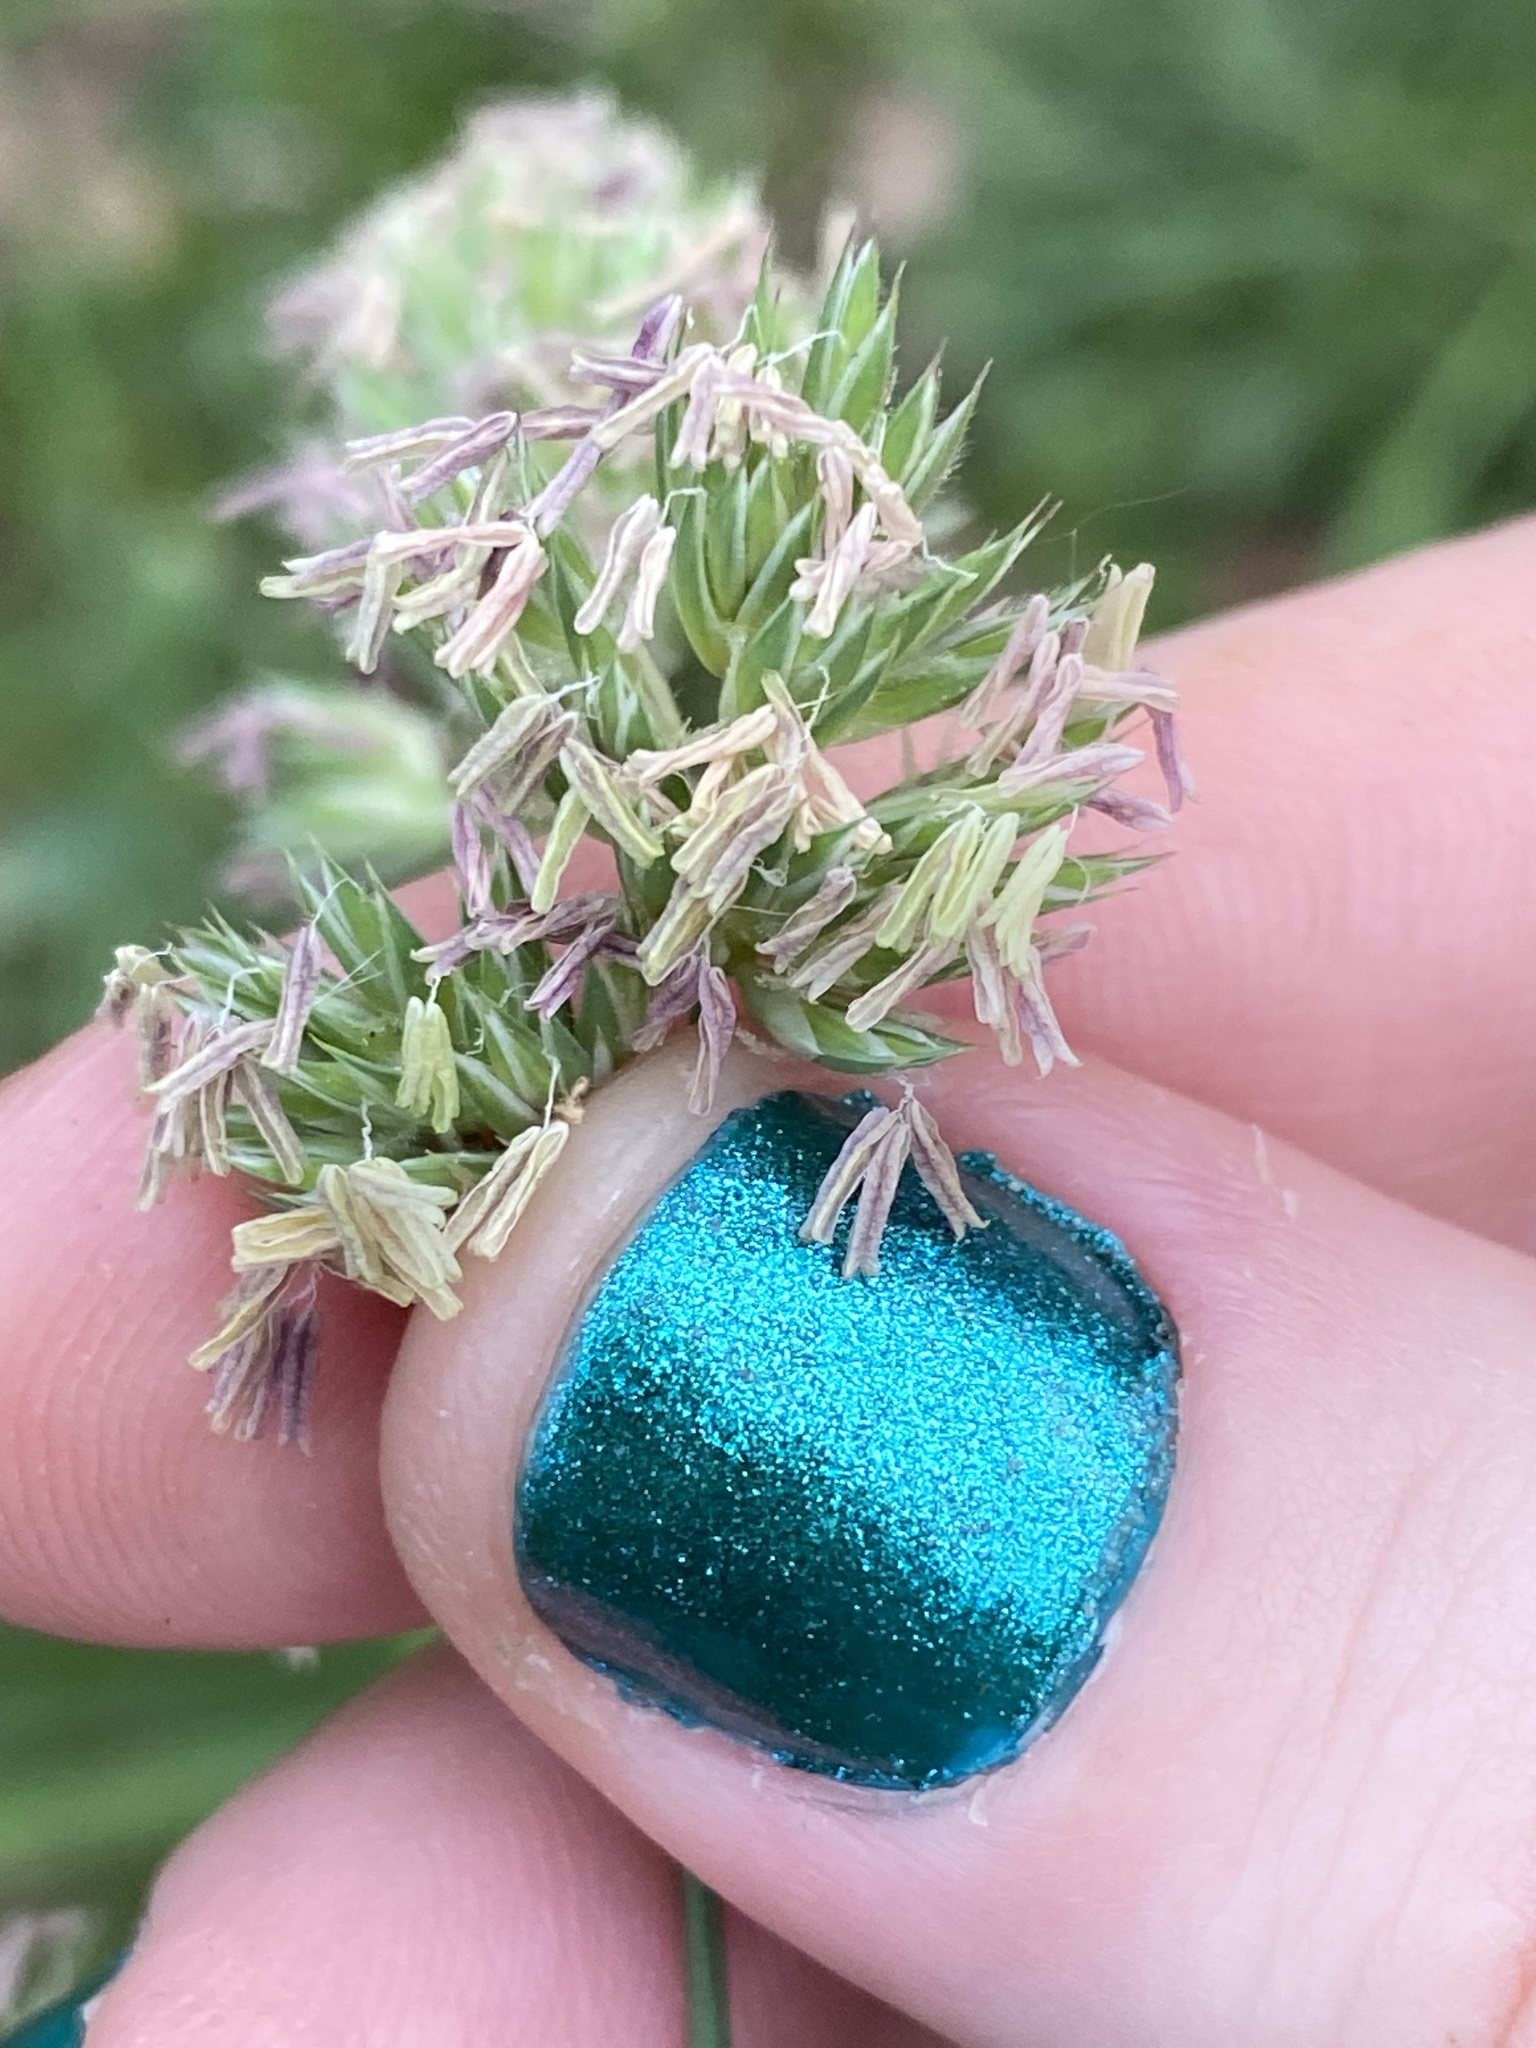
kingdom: Plantae
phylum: Tracheophyta
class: Liliopsida
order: Poales
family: Poaceae
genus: Dactylis
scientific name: Dactylis glomerata
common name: Orchardgrass
